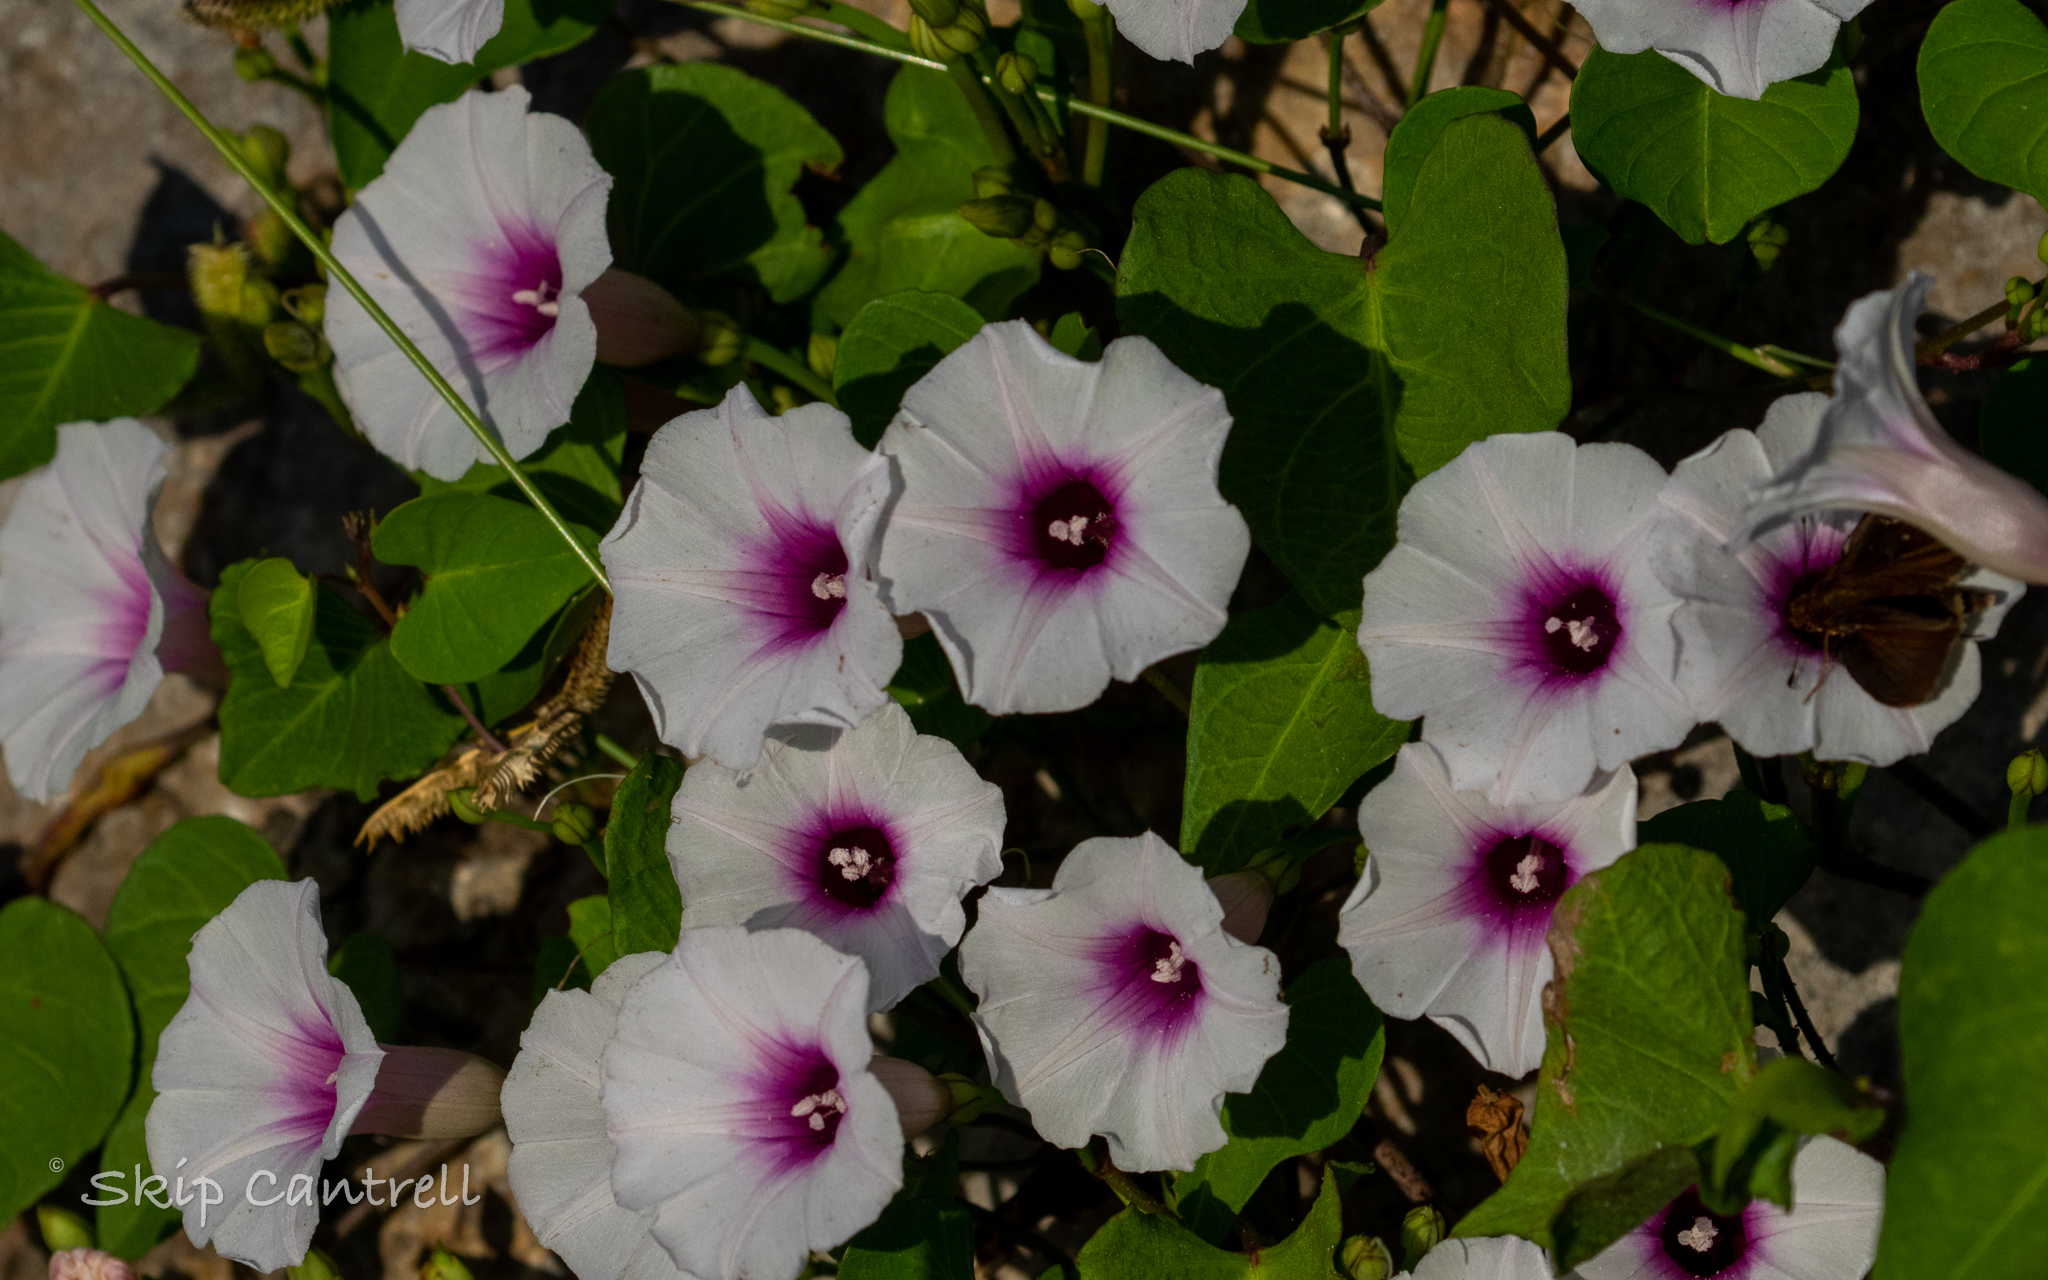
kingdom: Plantae
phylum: Tracheophyta
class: Magnoliopsida
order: Solanales
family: Convolvulaceae
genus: Ipomoea
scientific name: Ipomoea amnicola
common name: Redcenter morning-glory
